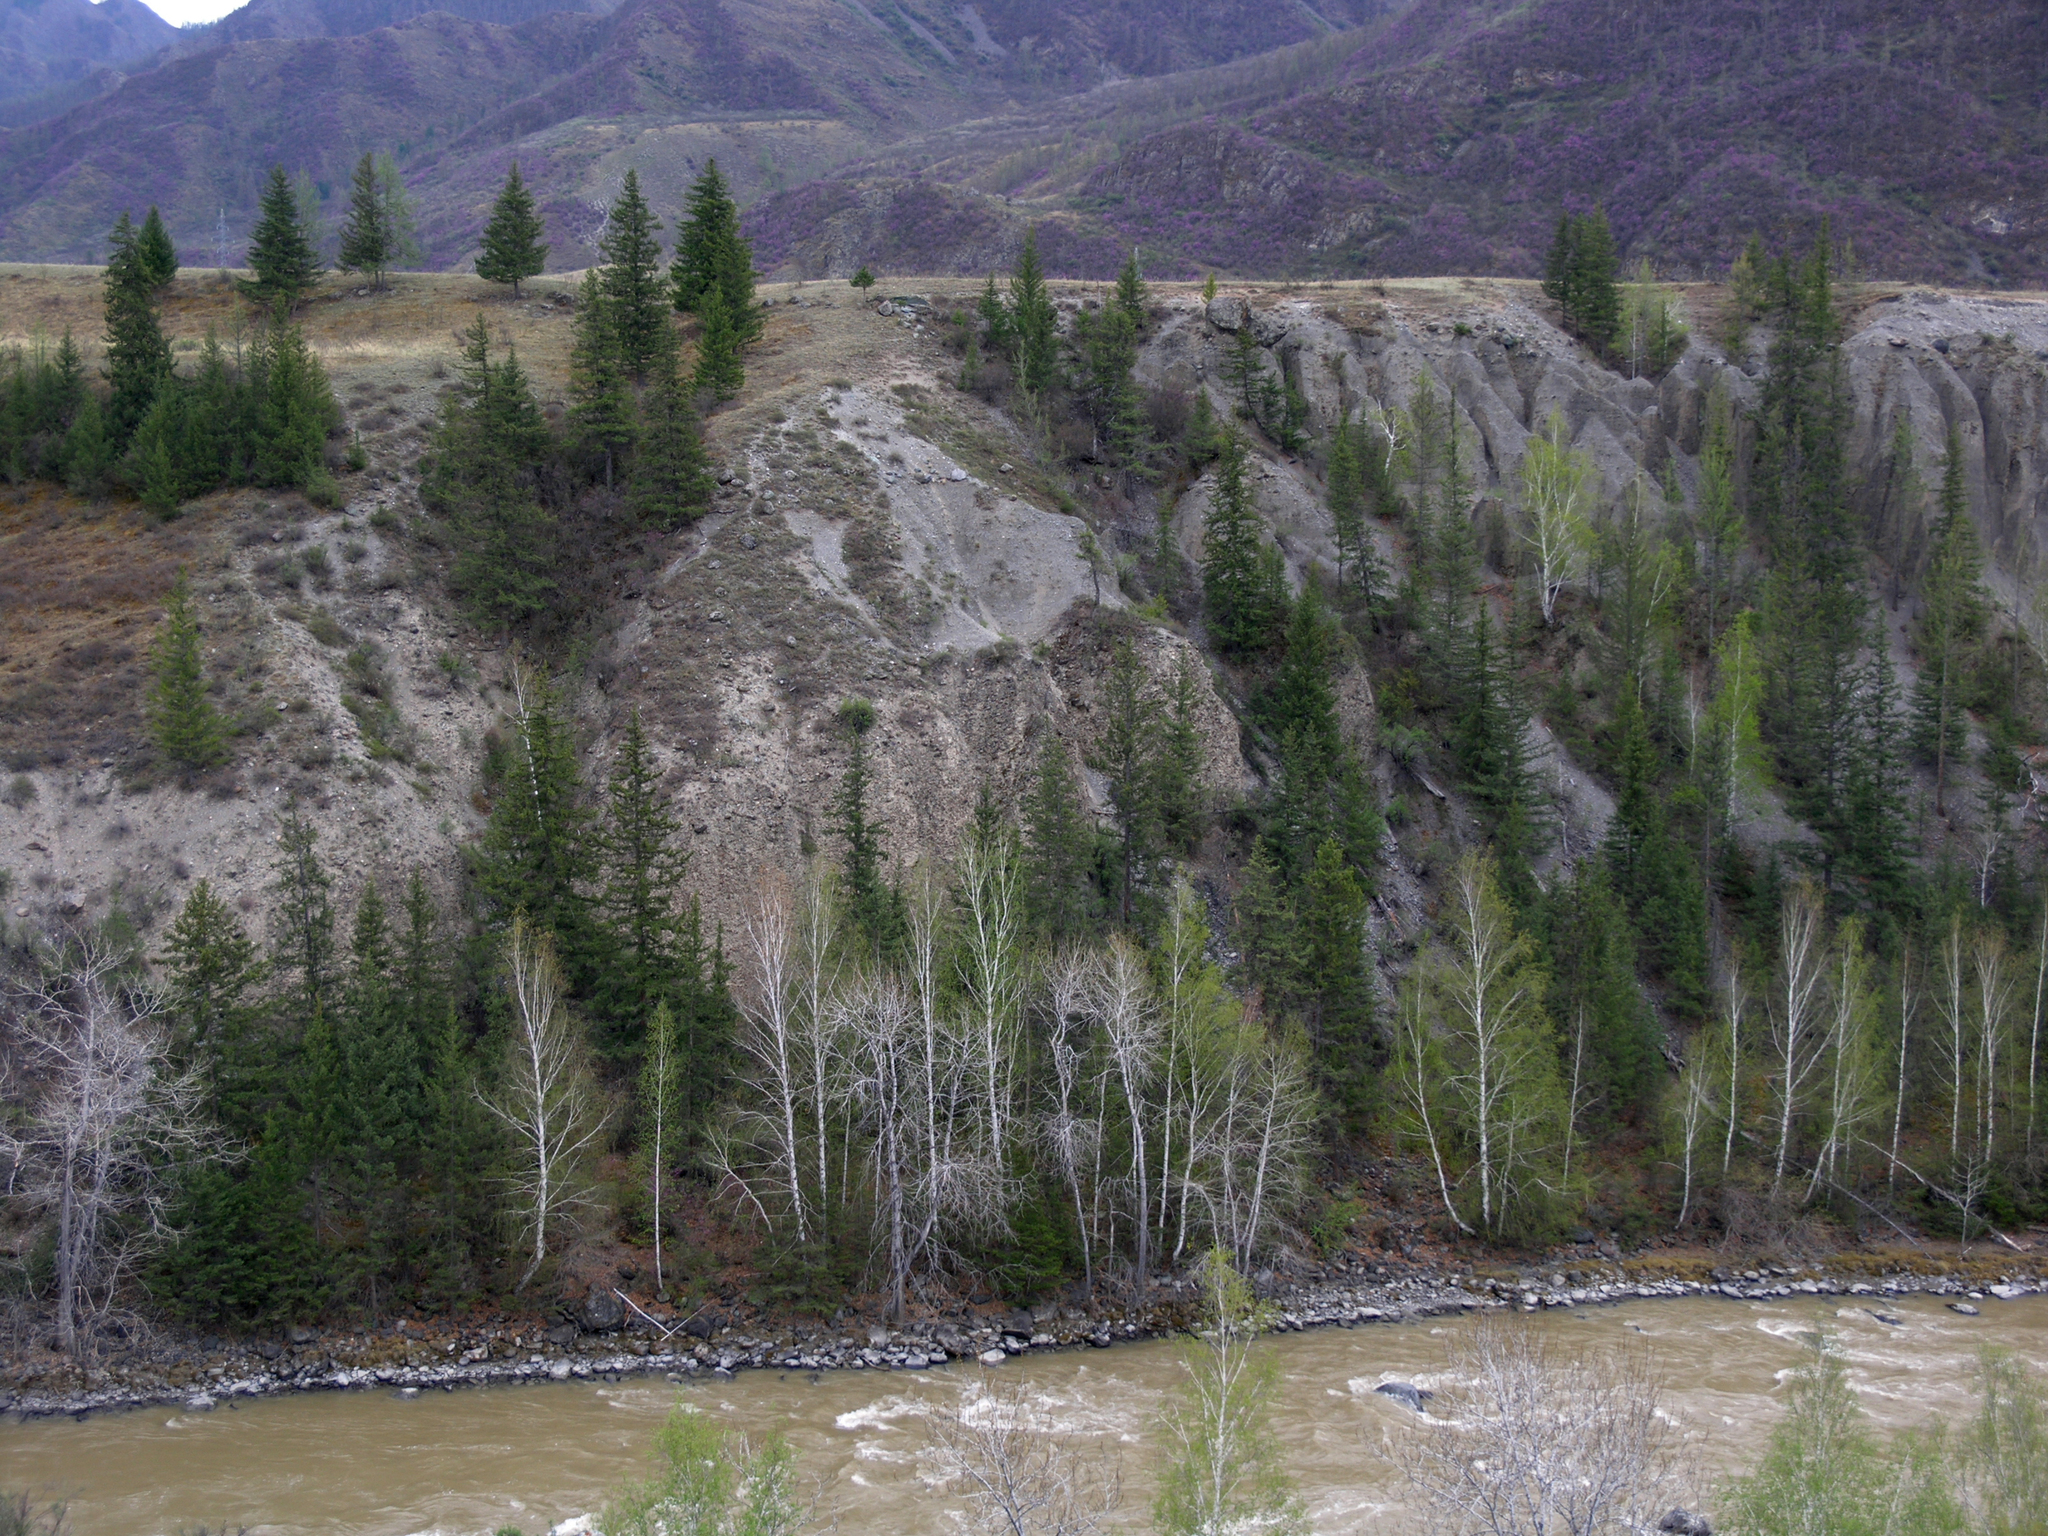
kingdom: Plantae
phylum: Tracheophyta
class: Pinopsida
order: Pinales
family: Pinaceae
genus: Picea
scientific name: Picea obovata
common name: Siberian spruce
